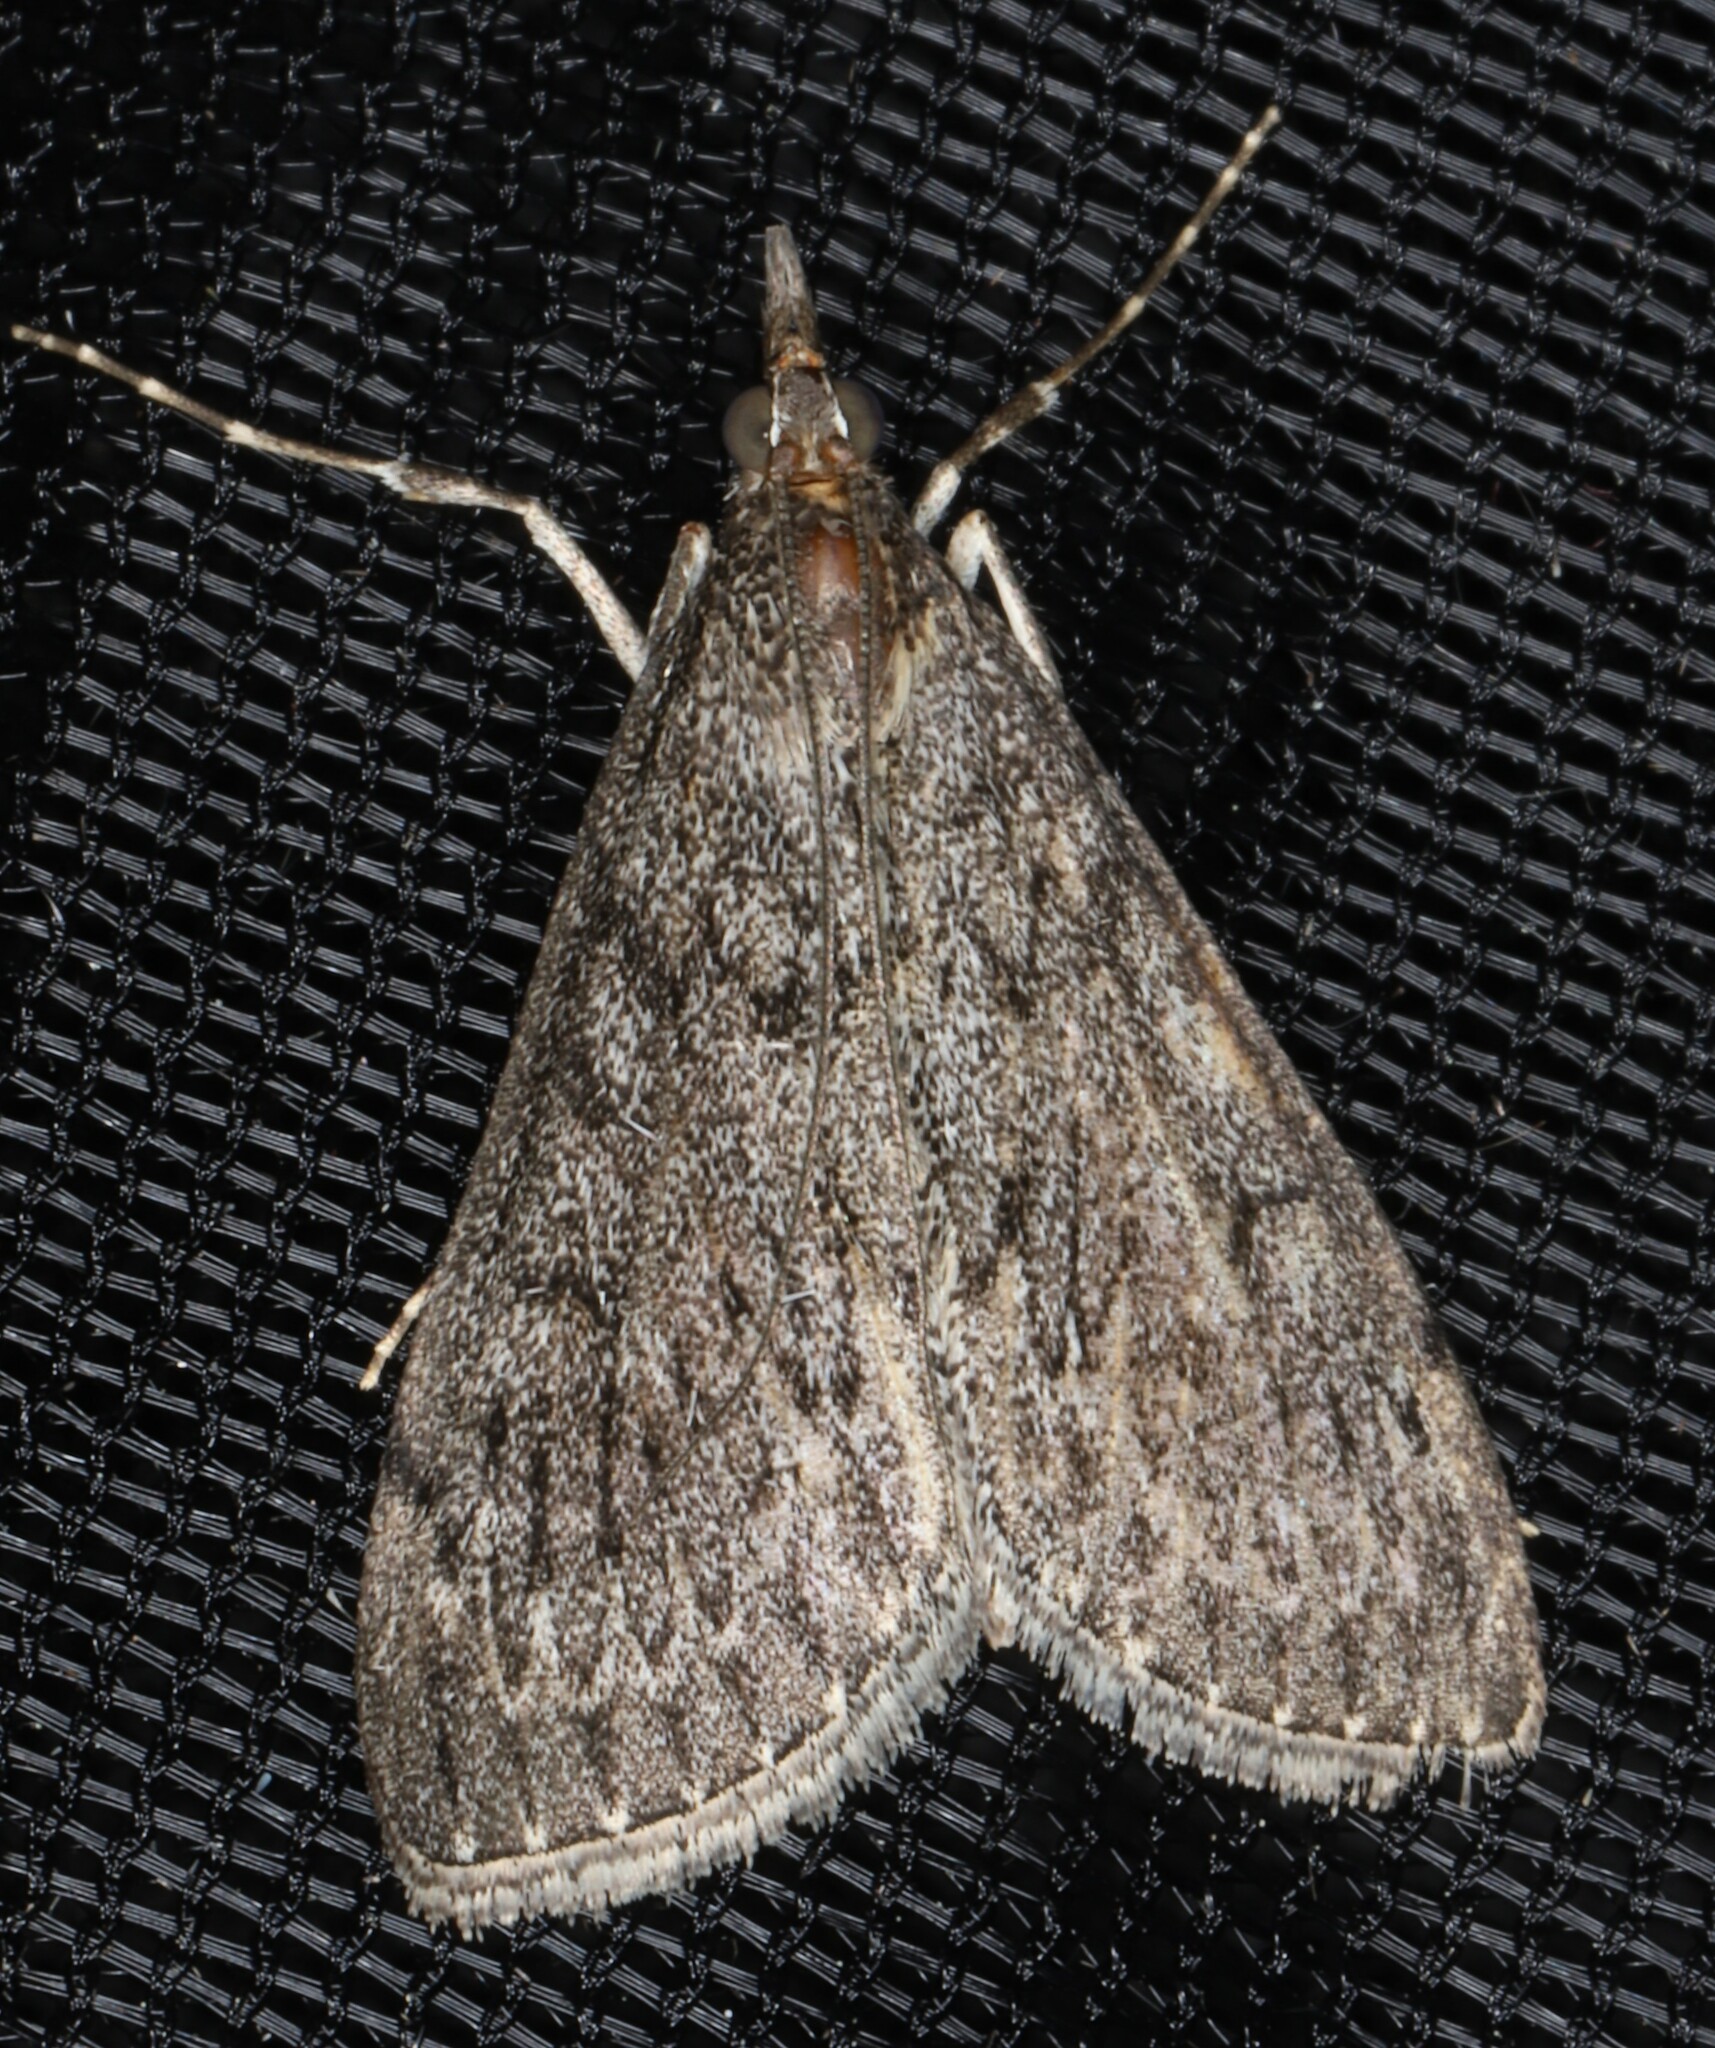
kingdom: Animalia
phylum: Arthropoda
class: Insecta
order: Lepidoptera
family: Crambidae
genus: Saucrobotys
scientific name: Saucrobotys fumoferalis
